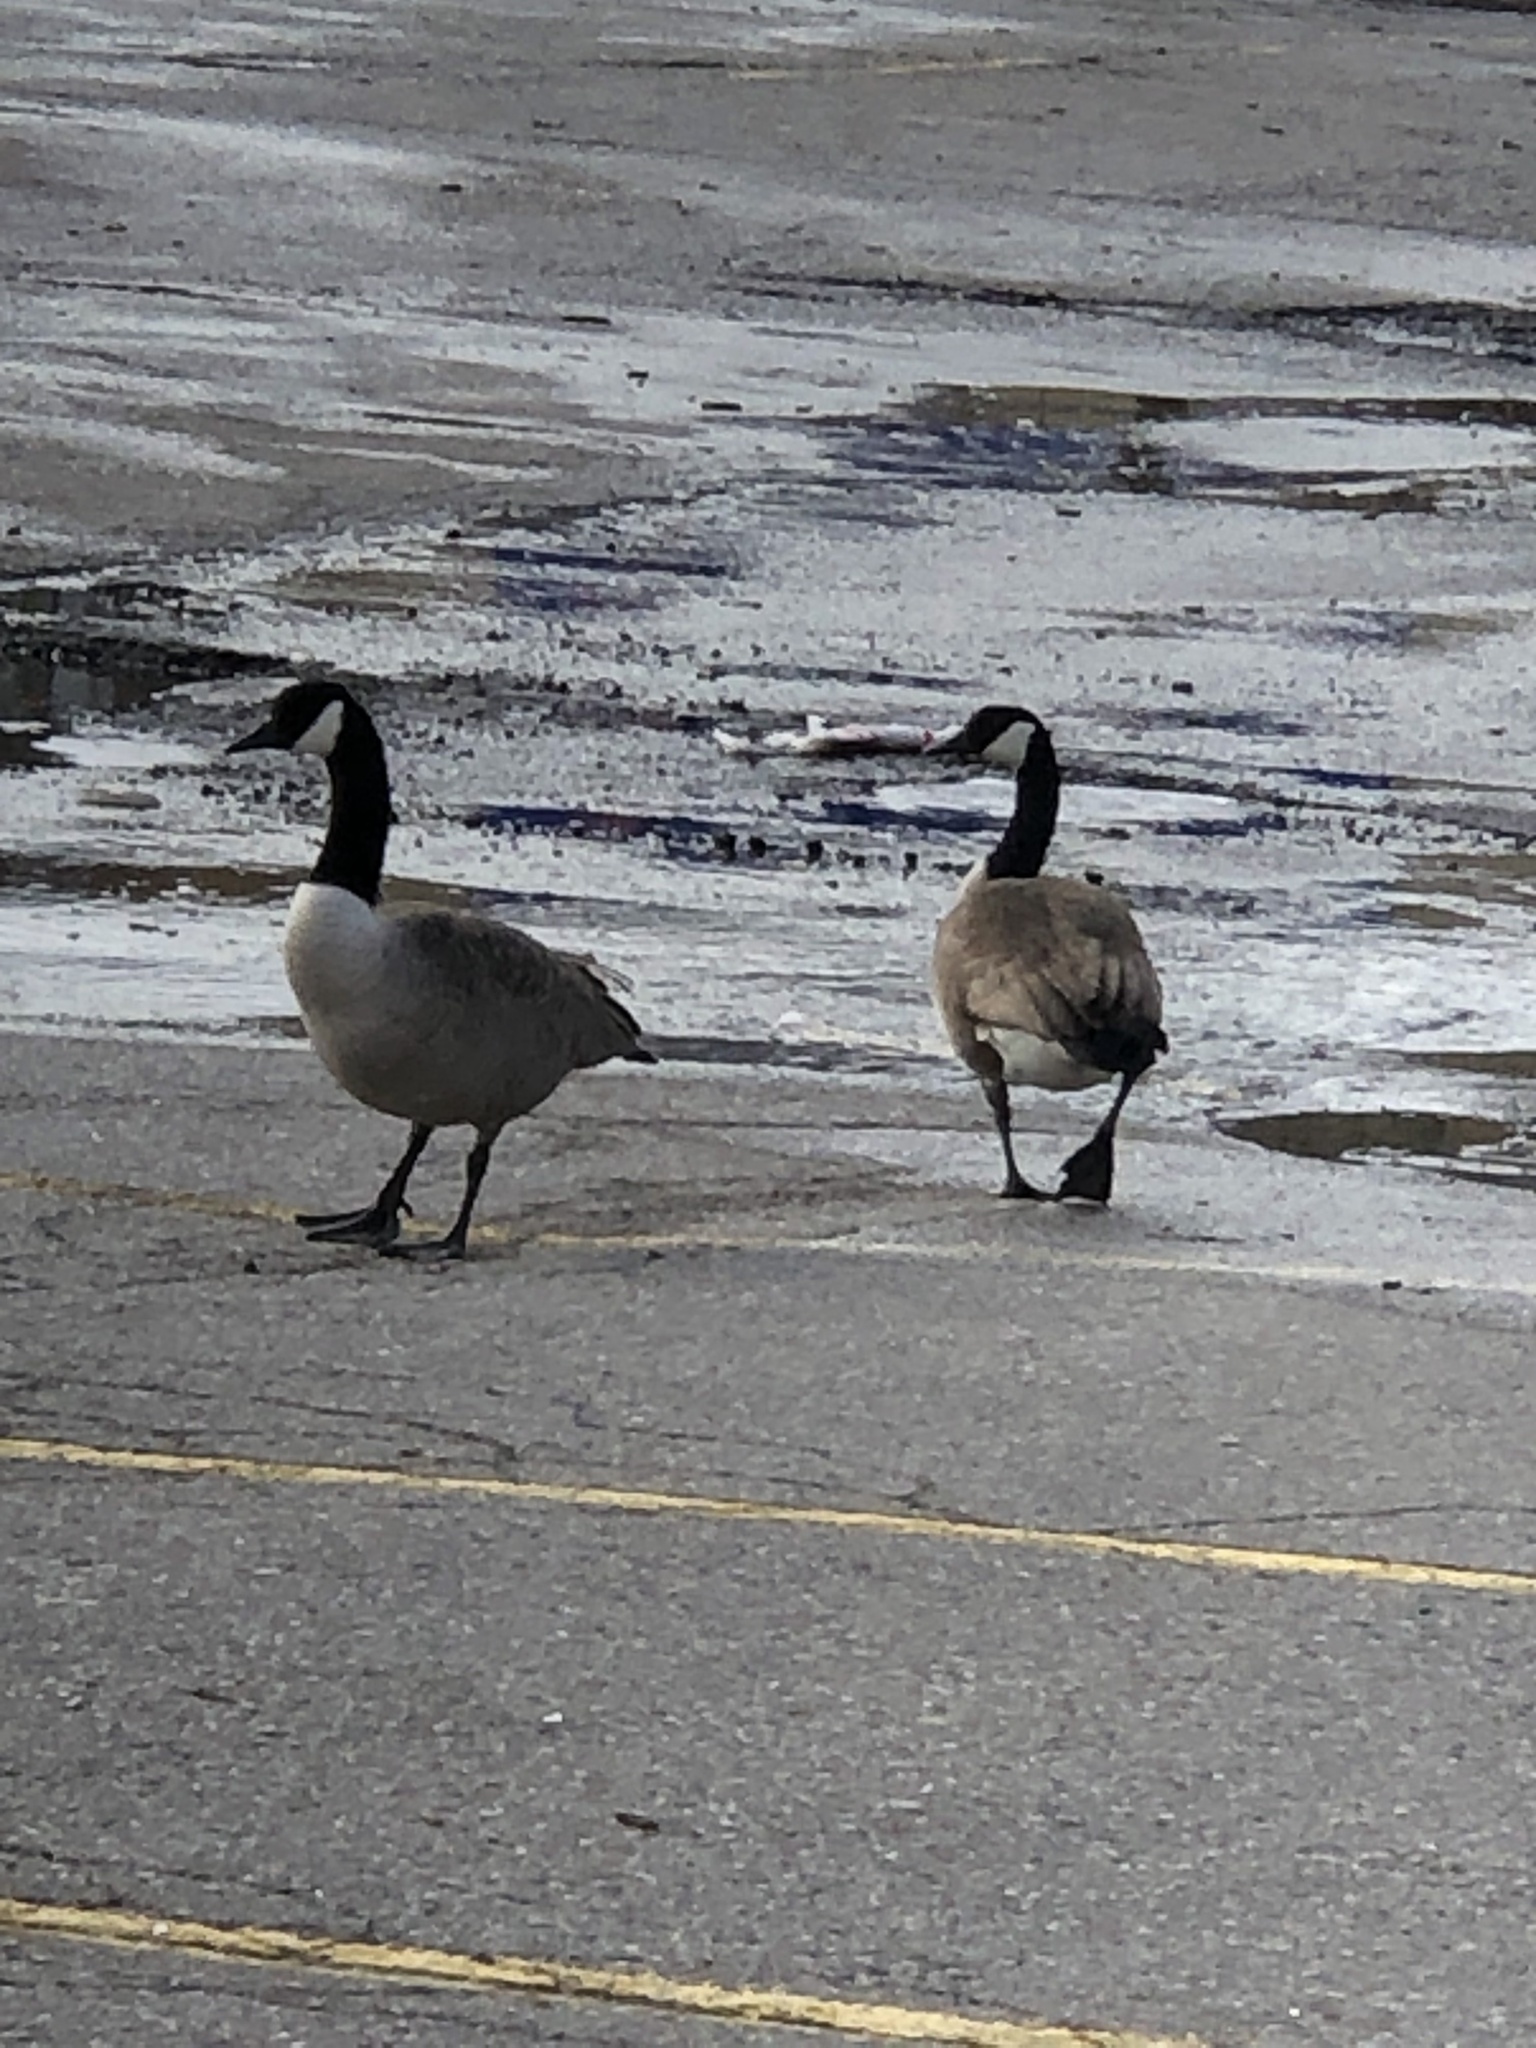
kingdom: Animalia
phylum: Chordata
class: Aves
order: Anseriformes
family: Anatidae
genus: Branta
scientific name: Branta canadensis
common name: Canada goose
